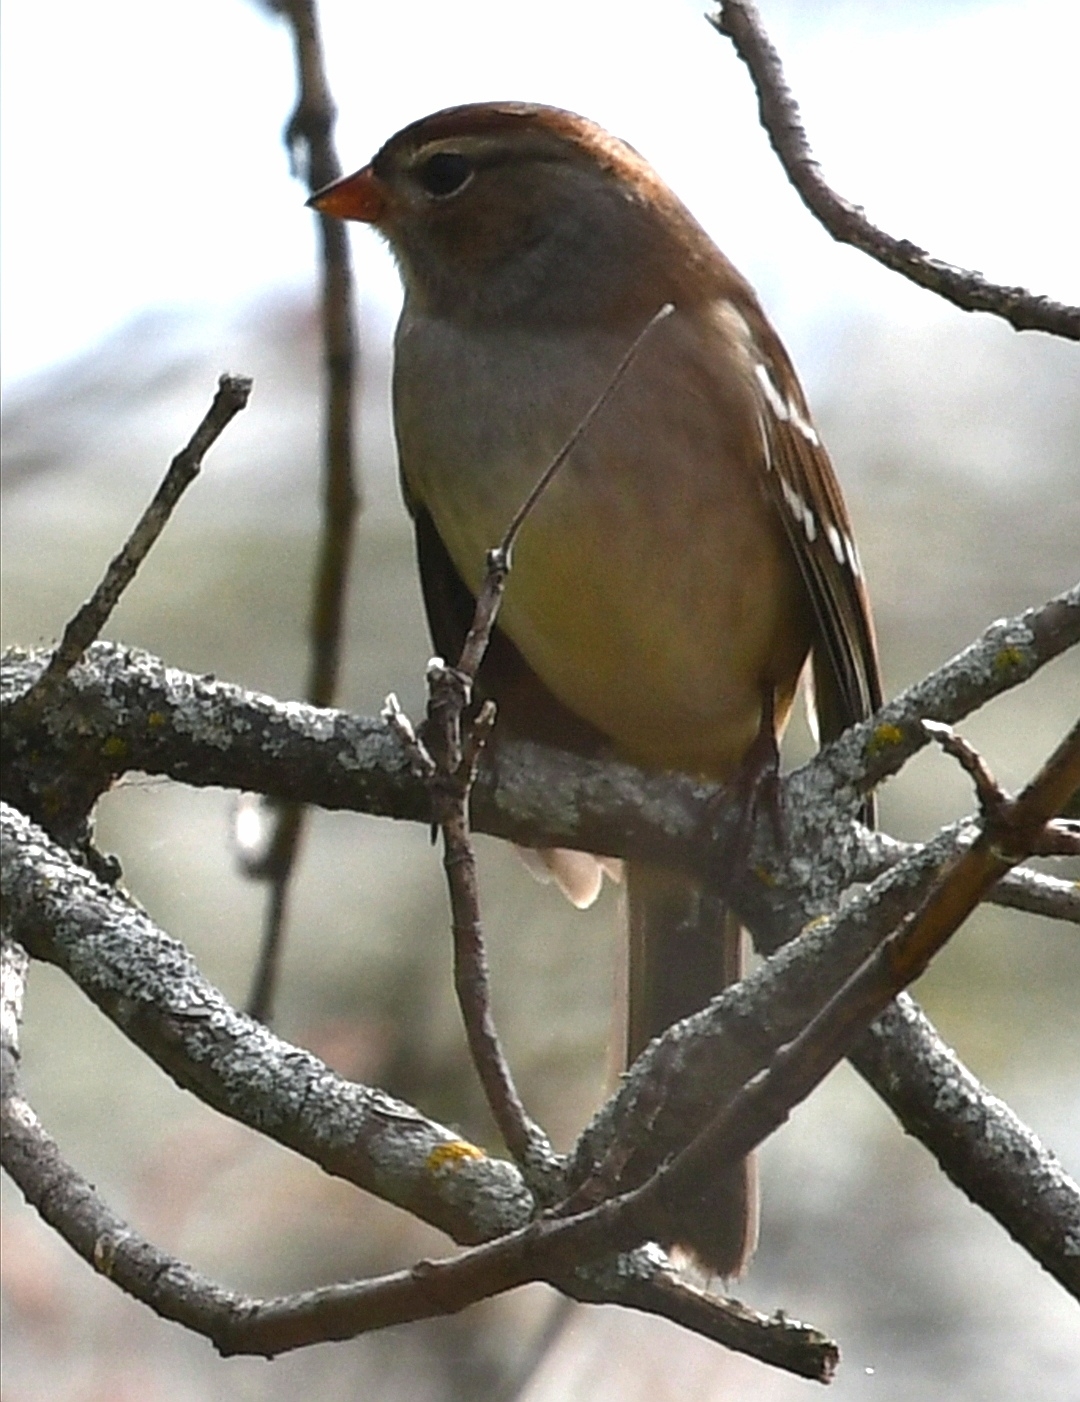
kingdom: Animalia
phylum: Chordata
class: Aves
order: Passeriformes
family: Passerellidae
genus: Zonotrichia
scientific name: Zonotrichia leucophrys
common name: White-crowned sparrow
